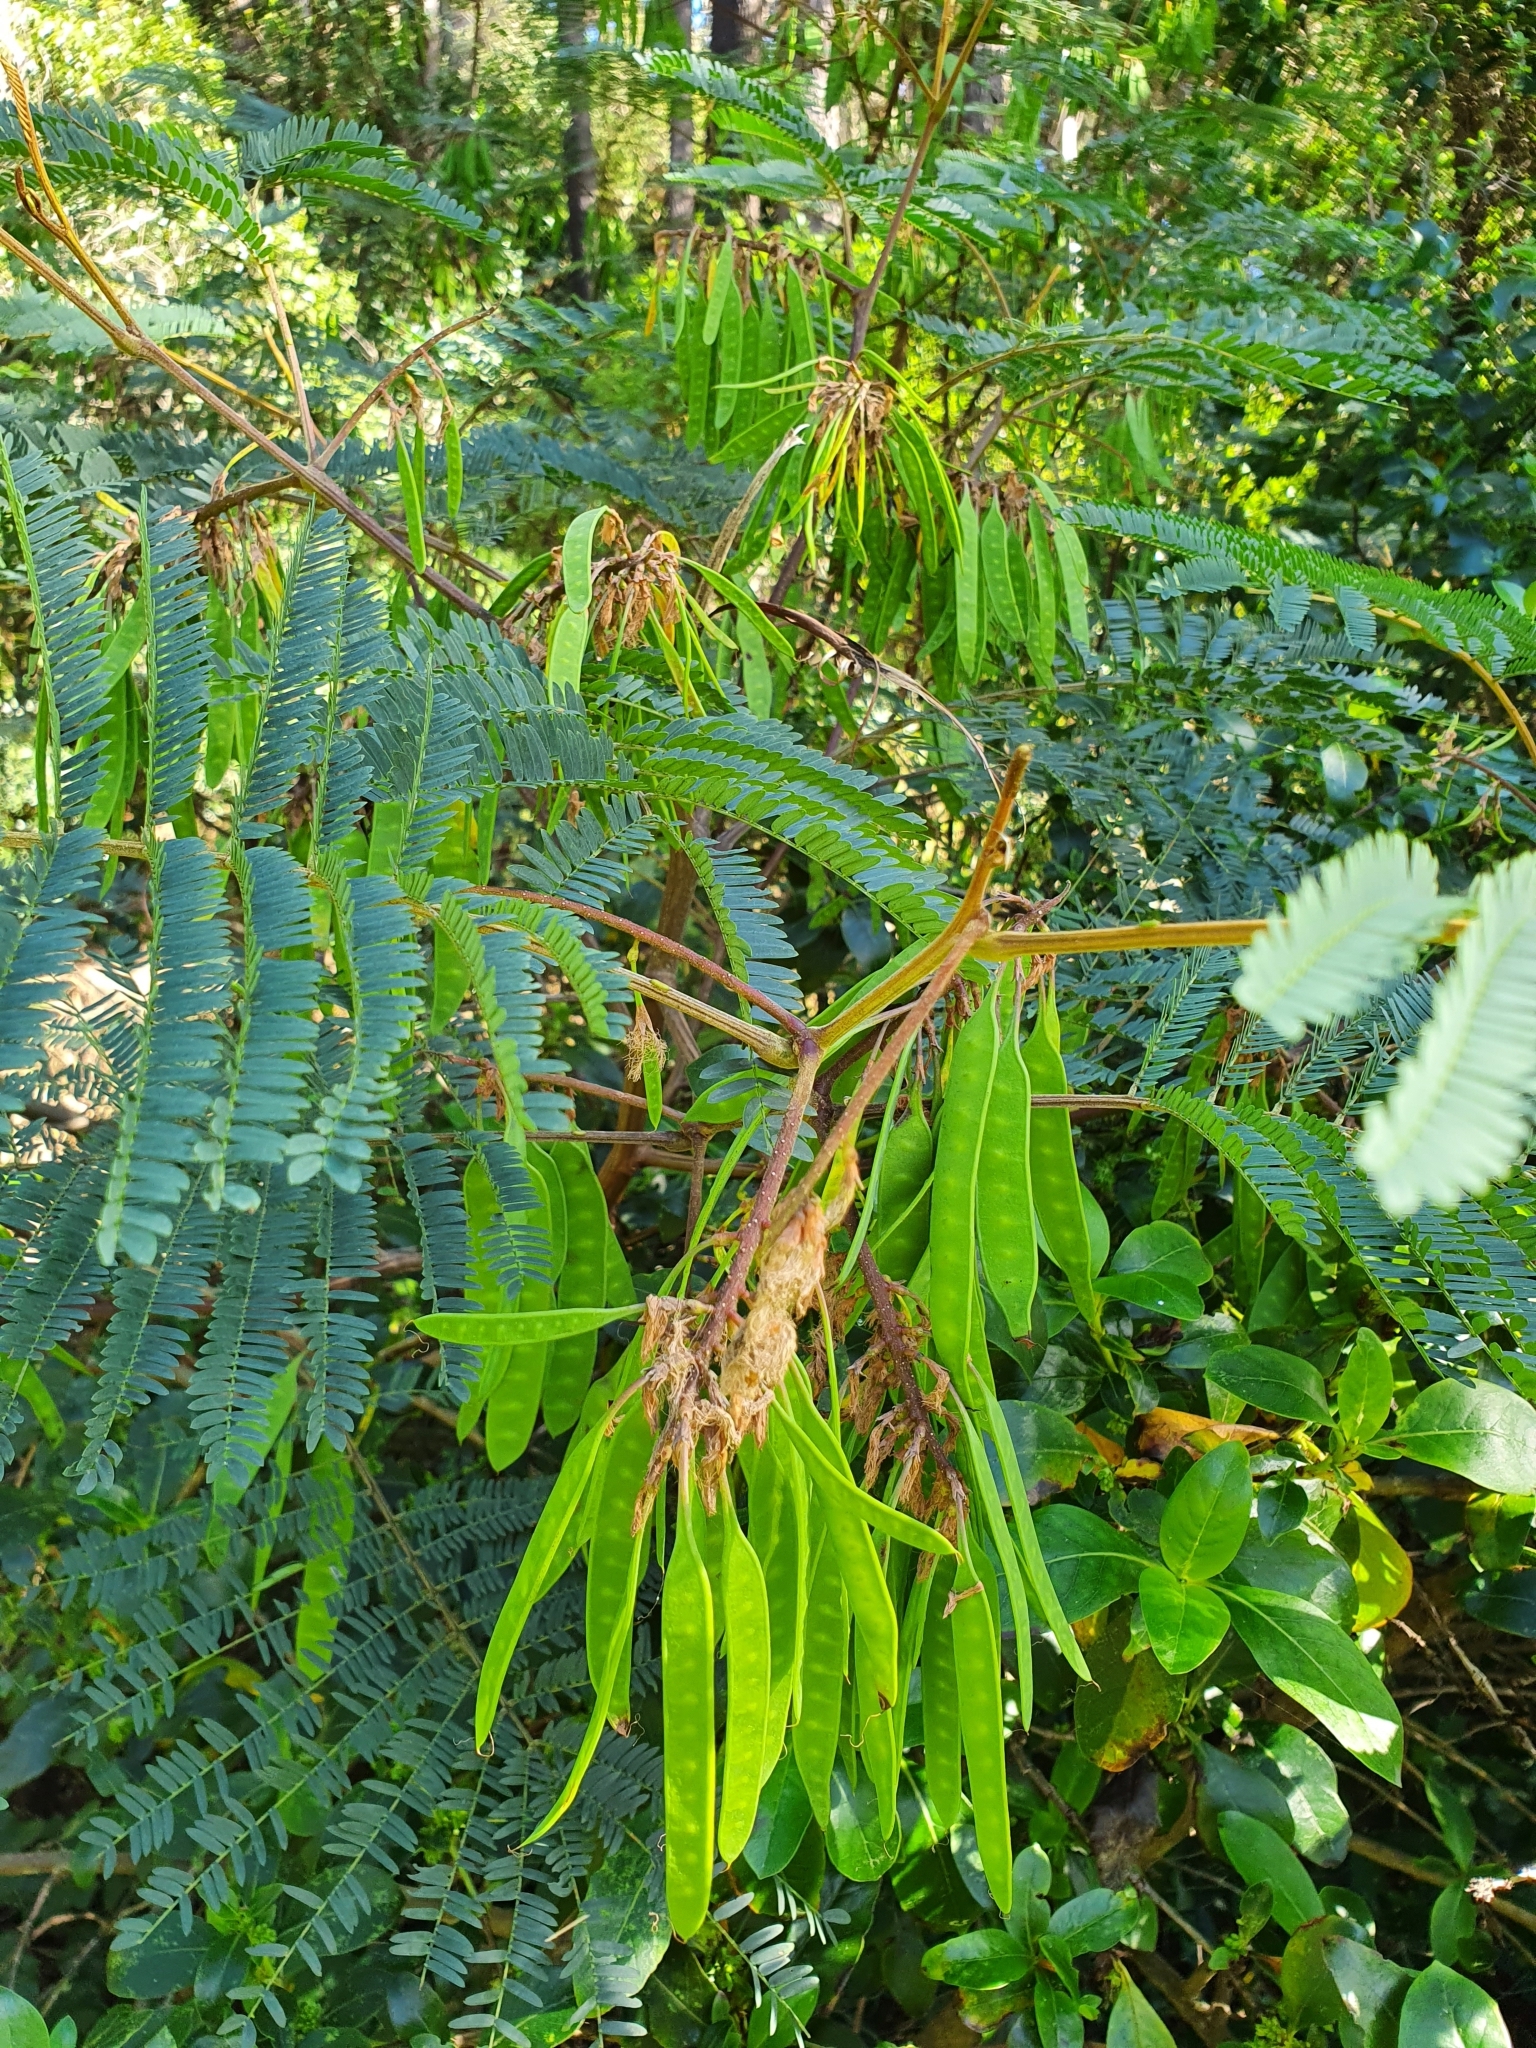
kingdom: Plantae
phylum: Tracheophyta
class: Magnoliopsida
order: Fabales
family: Fabaceae
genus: Paraserianthes
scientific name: Paraserianthes lophantha
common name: Plume albizia
